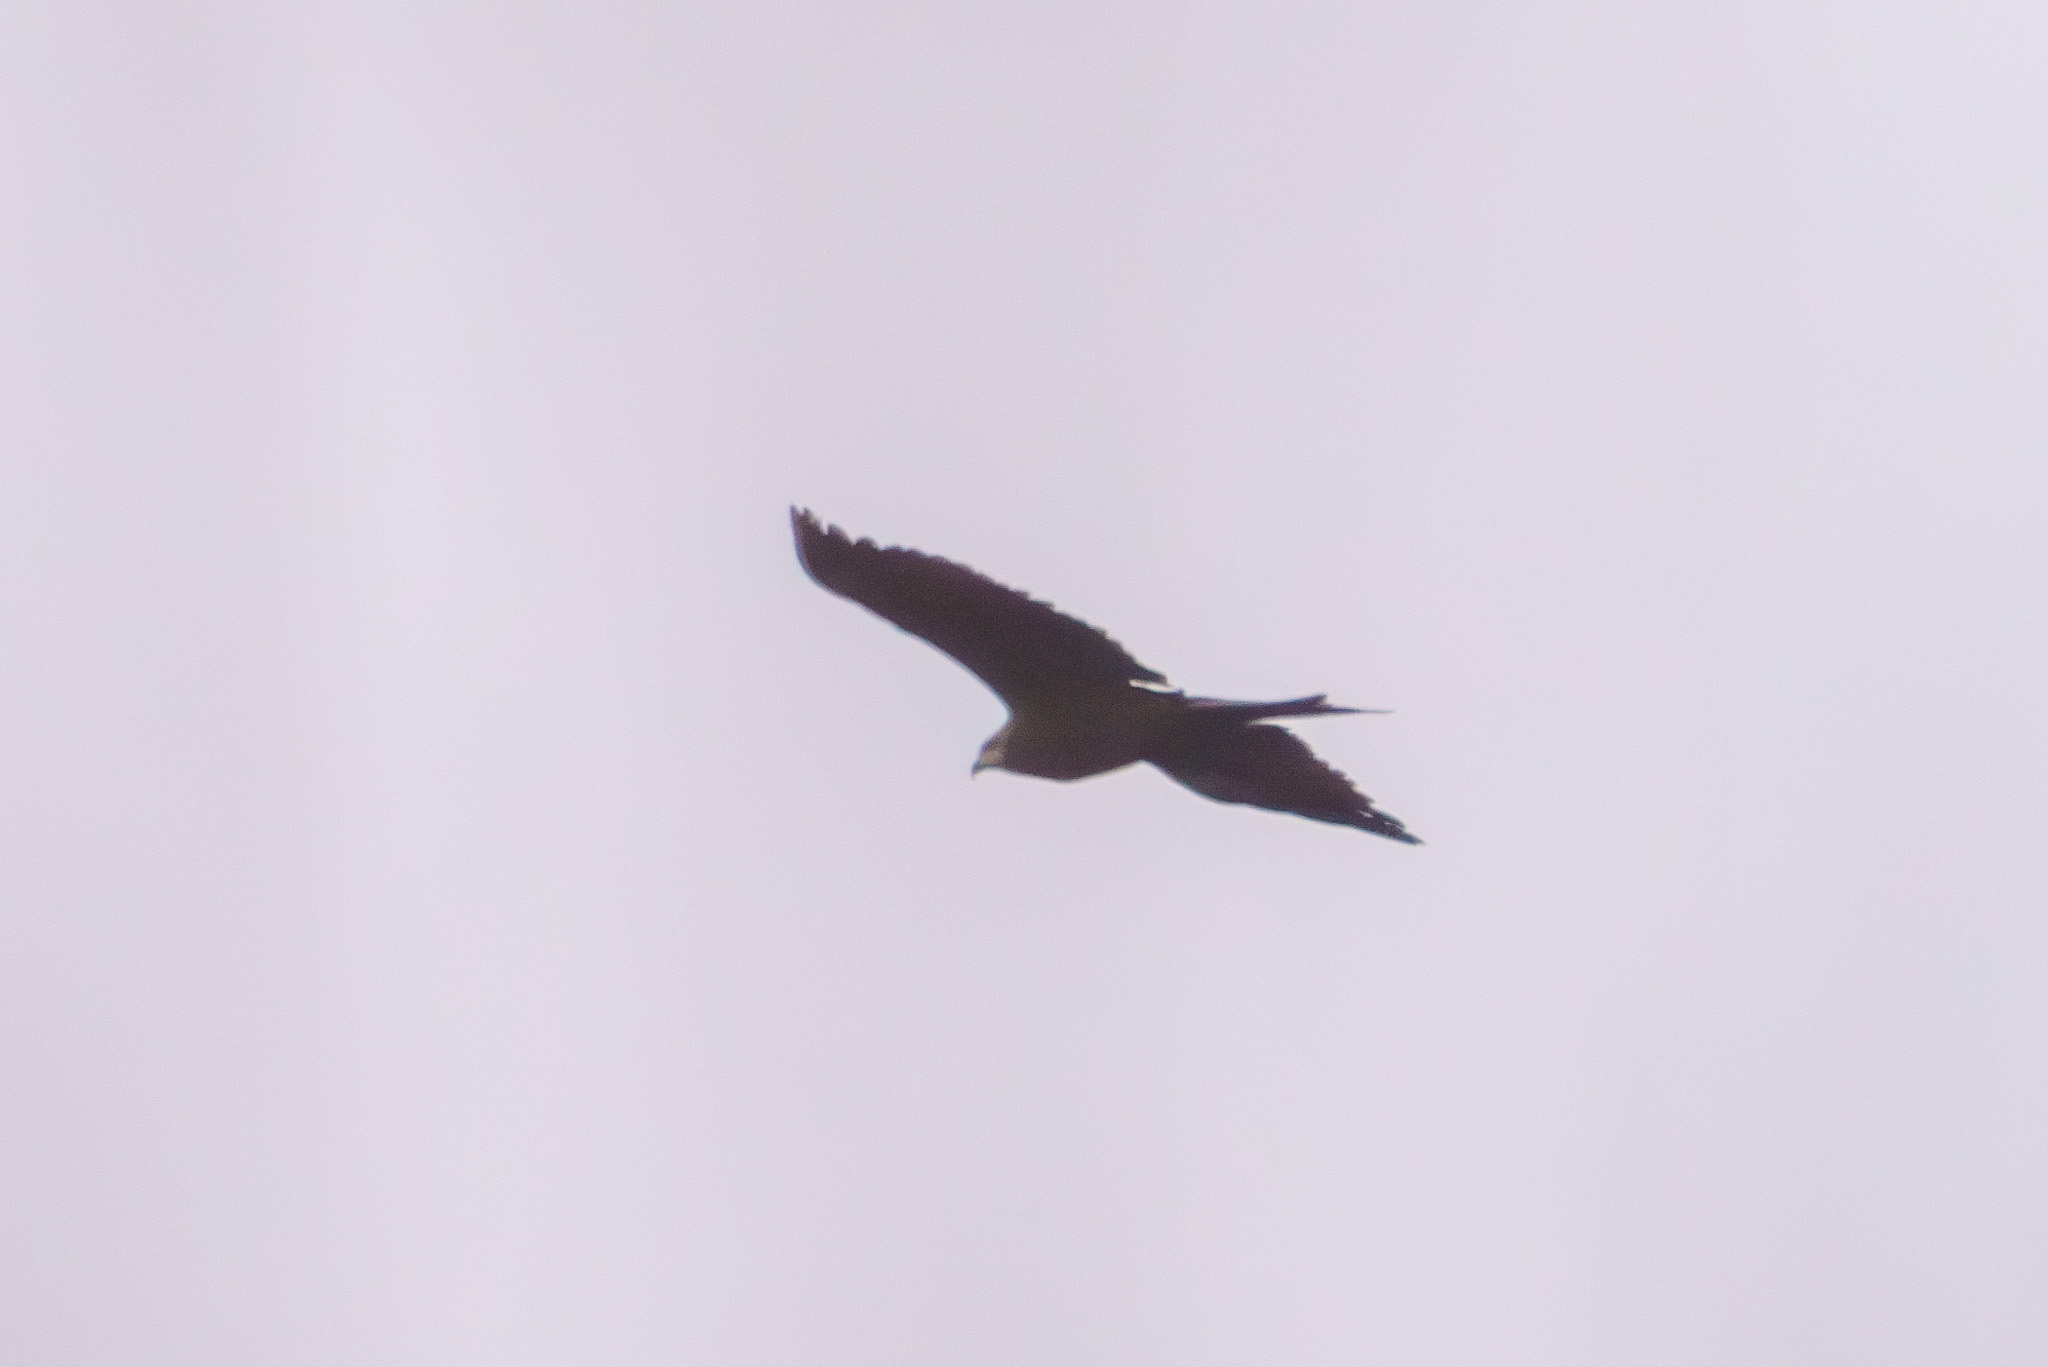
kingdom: Animalia
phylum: Chordata
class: Aves
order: Accipitriformes
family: Accipitridae
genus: Milvus
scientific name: Milvus migrans
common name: Black kite
